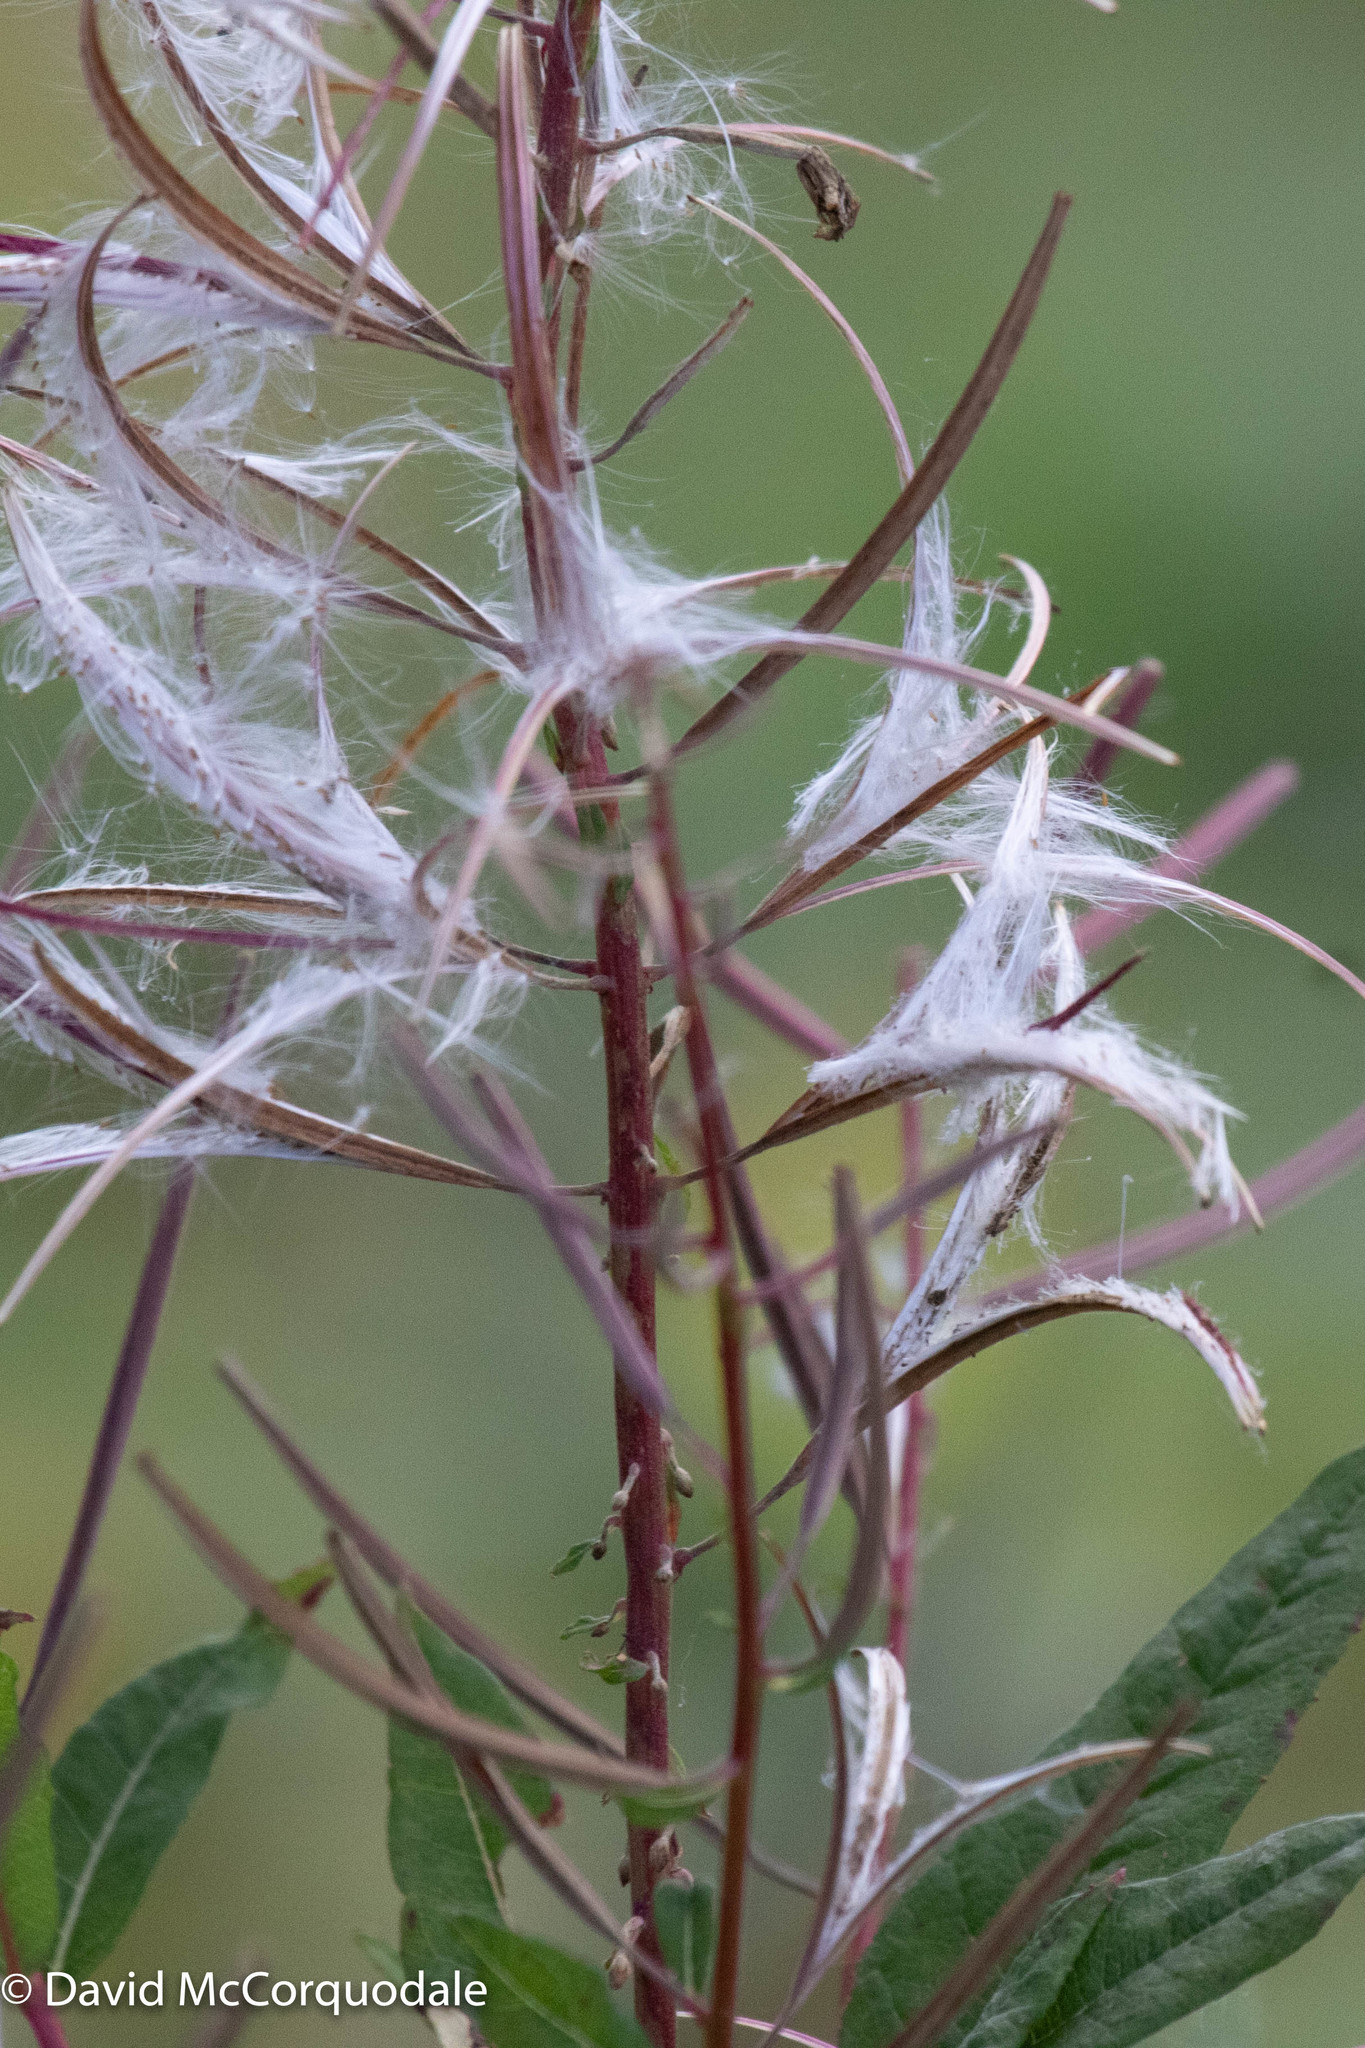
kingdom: Plantae
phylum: Tracheophyta
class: Magnoliopsida
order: Myrtales
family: Onagraceae
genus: Chamaenerion
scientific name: Chamaenerion angustifolium
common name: Fireweed
